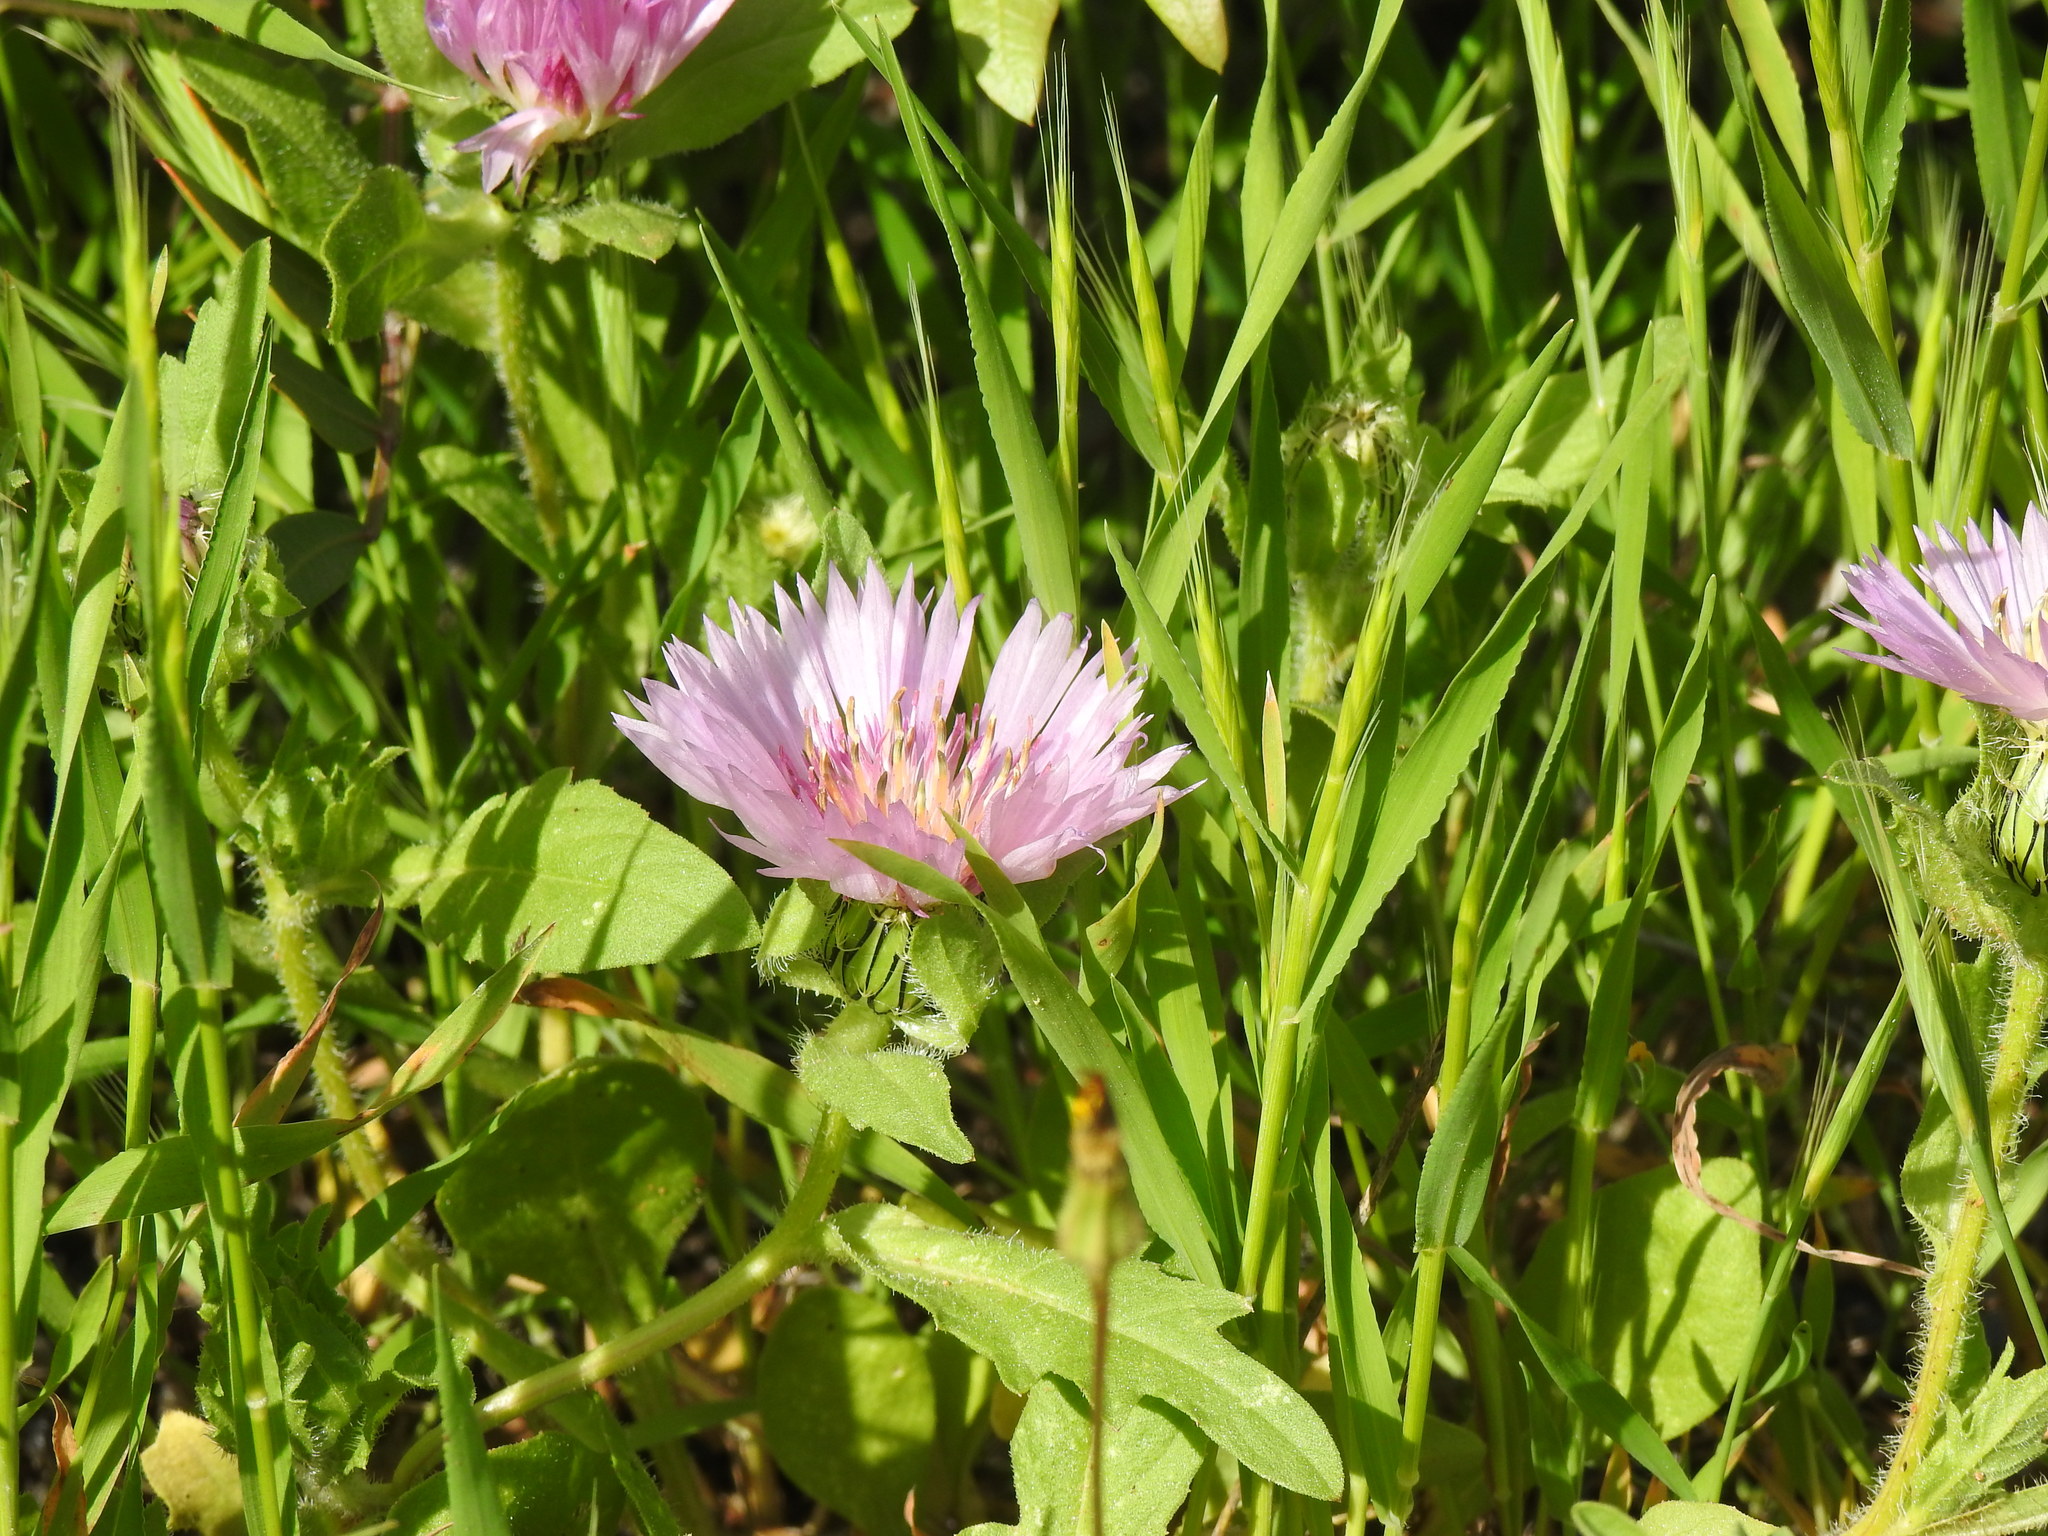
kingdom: Plantae
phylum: Tracheophyta
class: Magnoliopsida
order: Asterales
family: Asteraceae
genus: Centaurea
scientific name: Centaurea pullata
